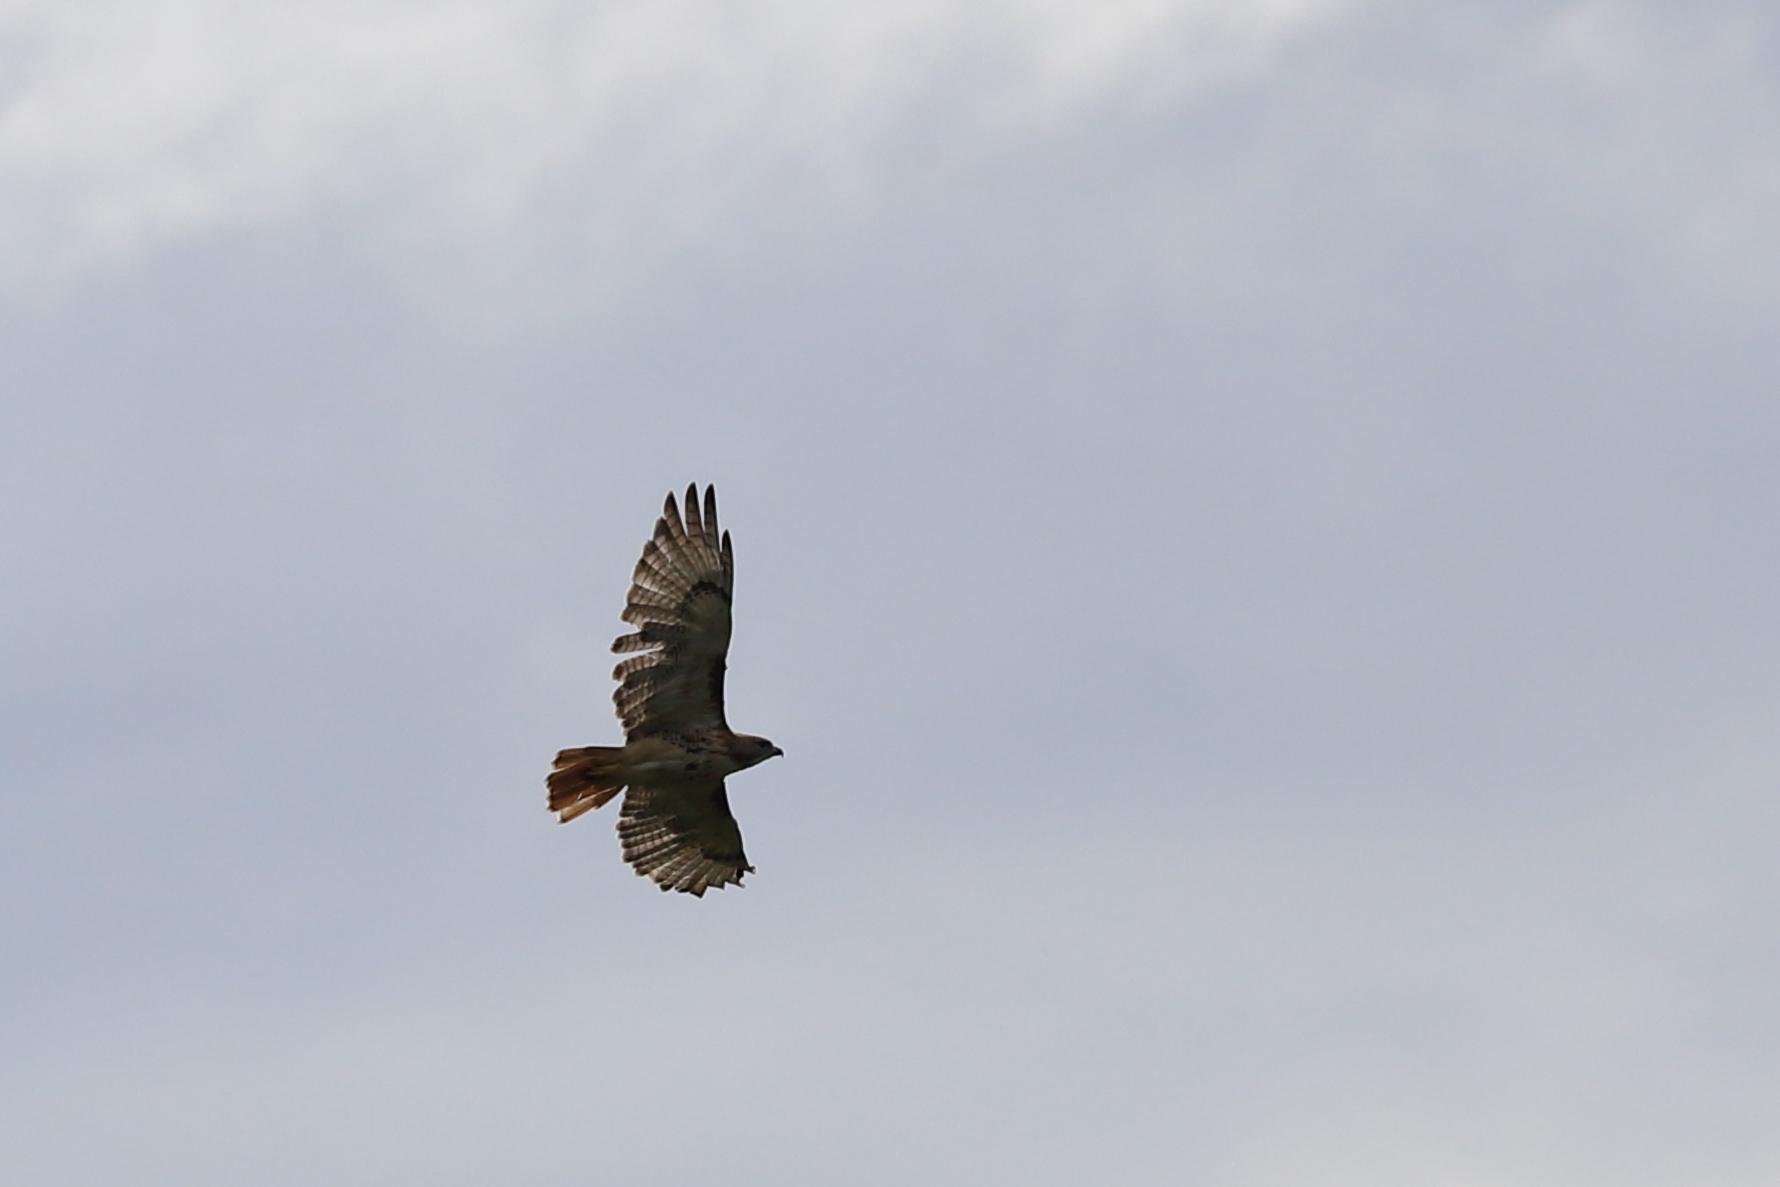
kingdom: Animalia
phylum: Chordata
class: Aves
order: Accipitriformes
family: Accipitridae
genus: Buteo
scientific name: Buteo jamaicensis
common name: Red-tailed hawk
